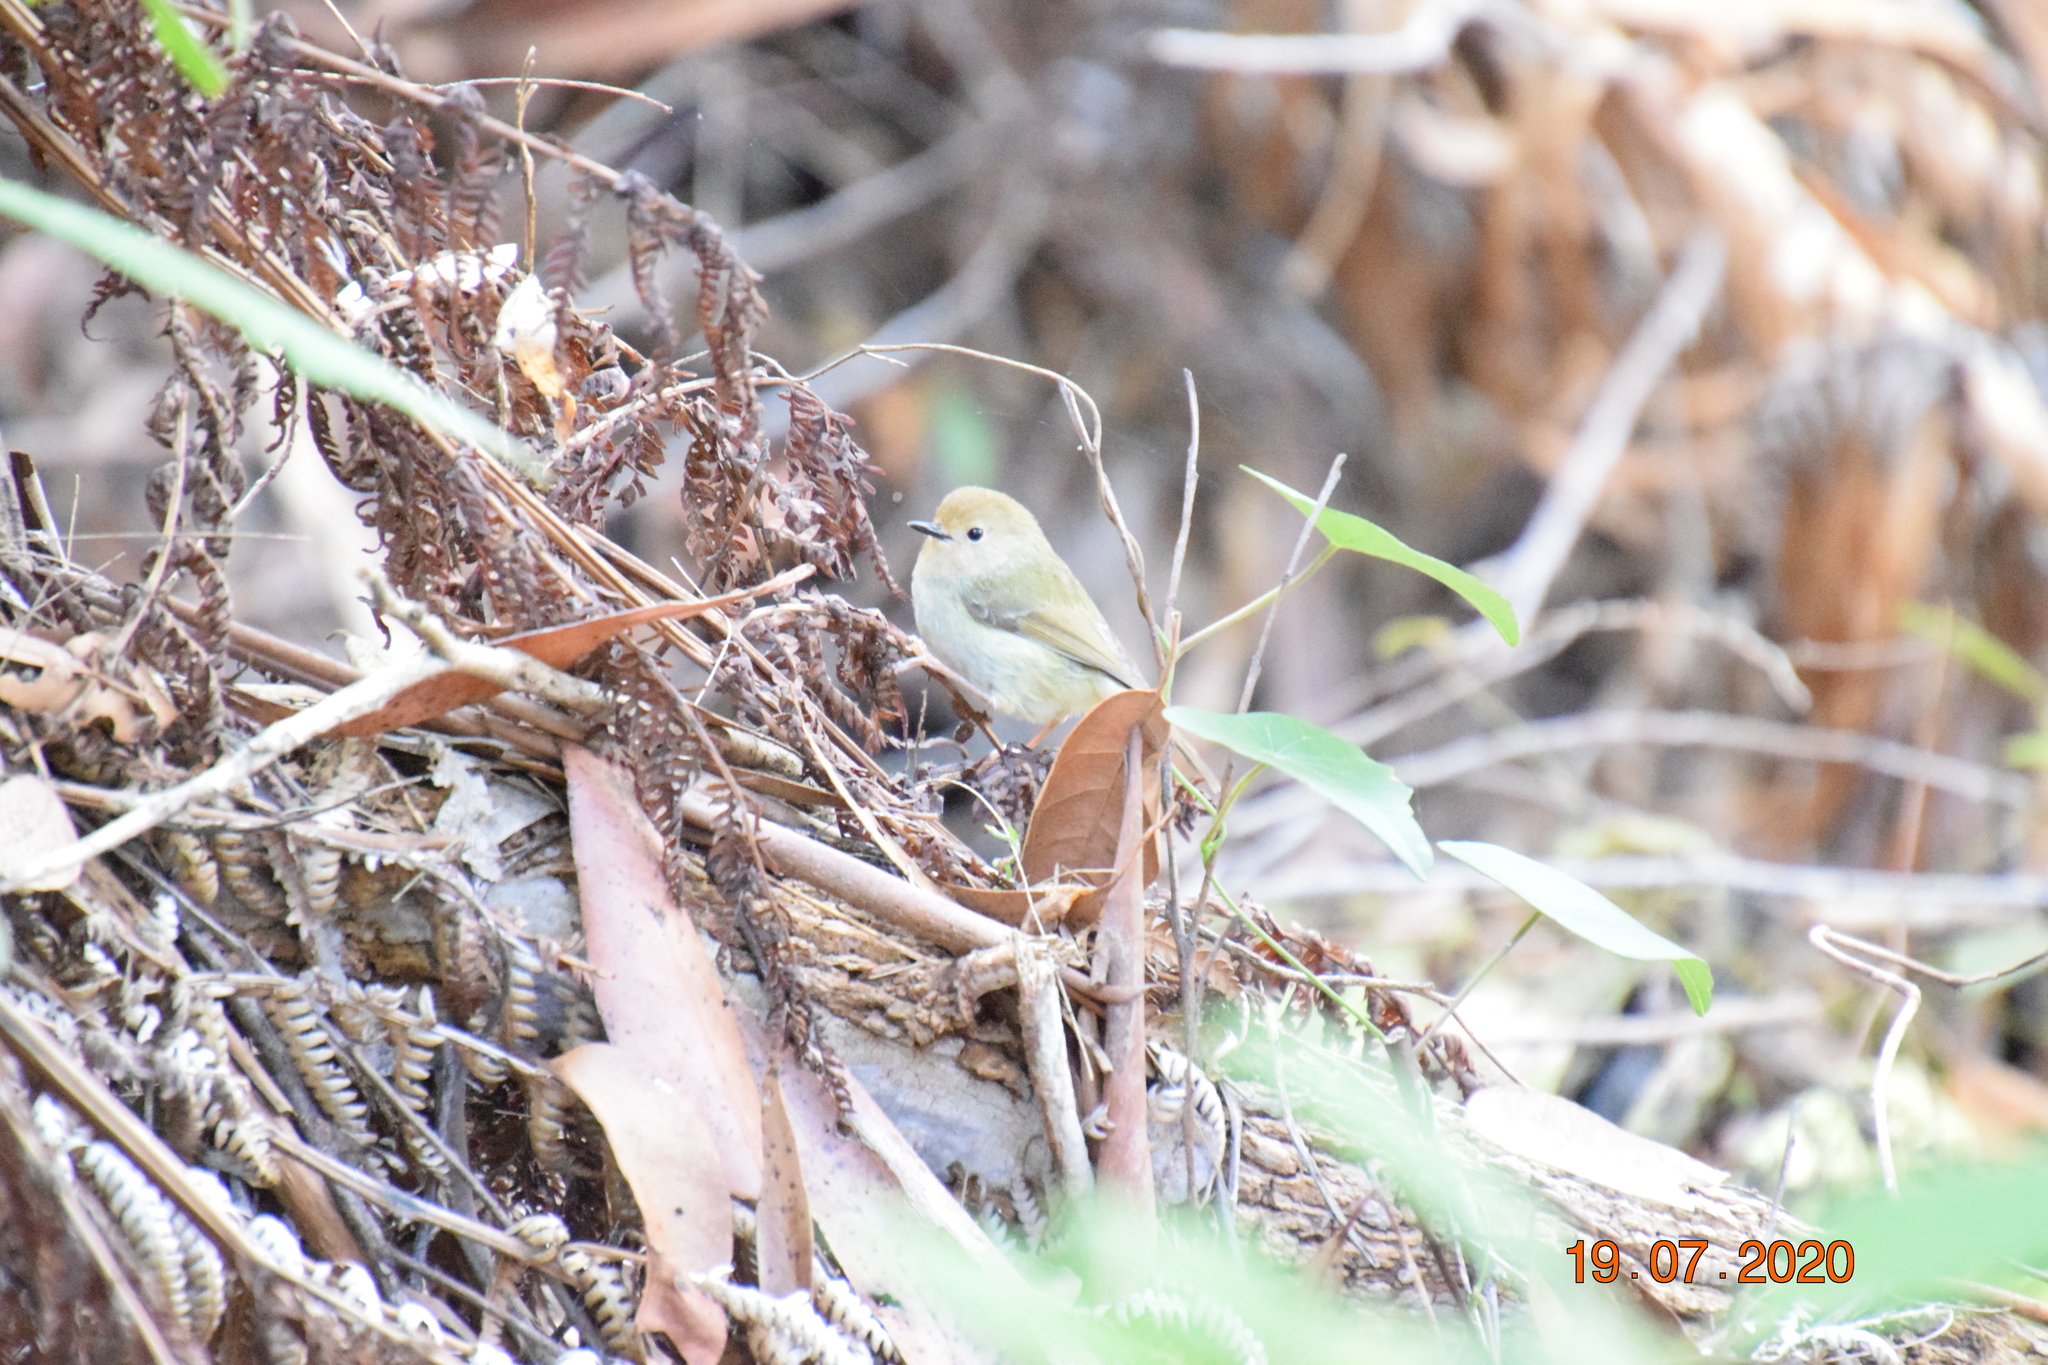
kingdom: Animalia
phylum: Chordata
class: Aves
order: Passeriformes
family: Acanthizidae
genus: Sericornis
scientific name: Sericornis magnirostra
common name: Large-billed scrubwren
